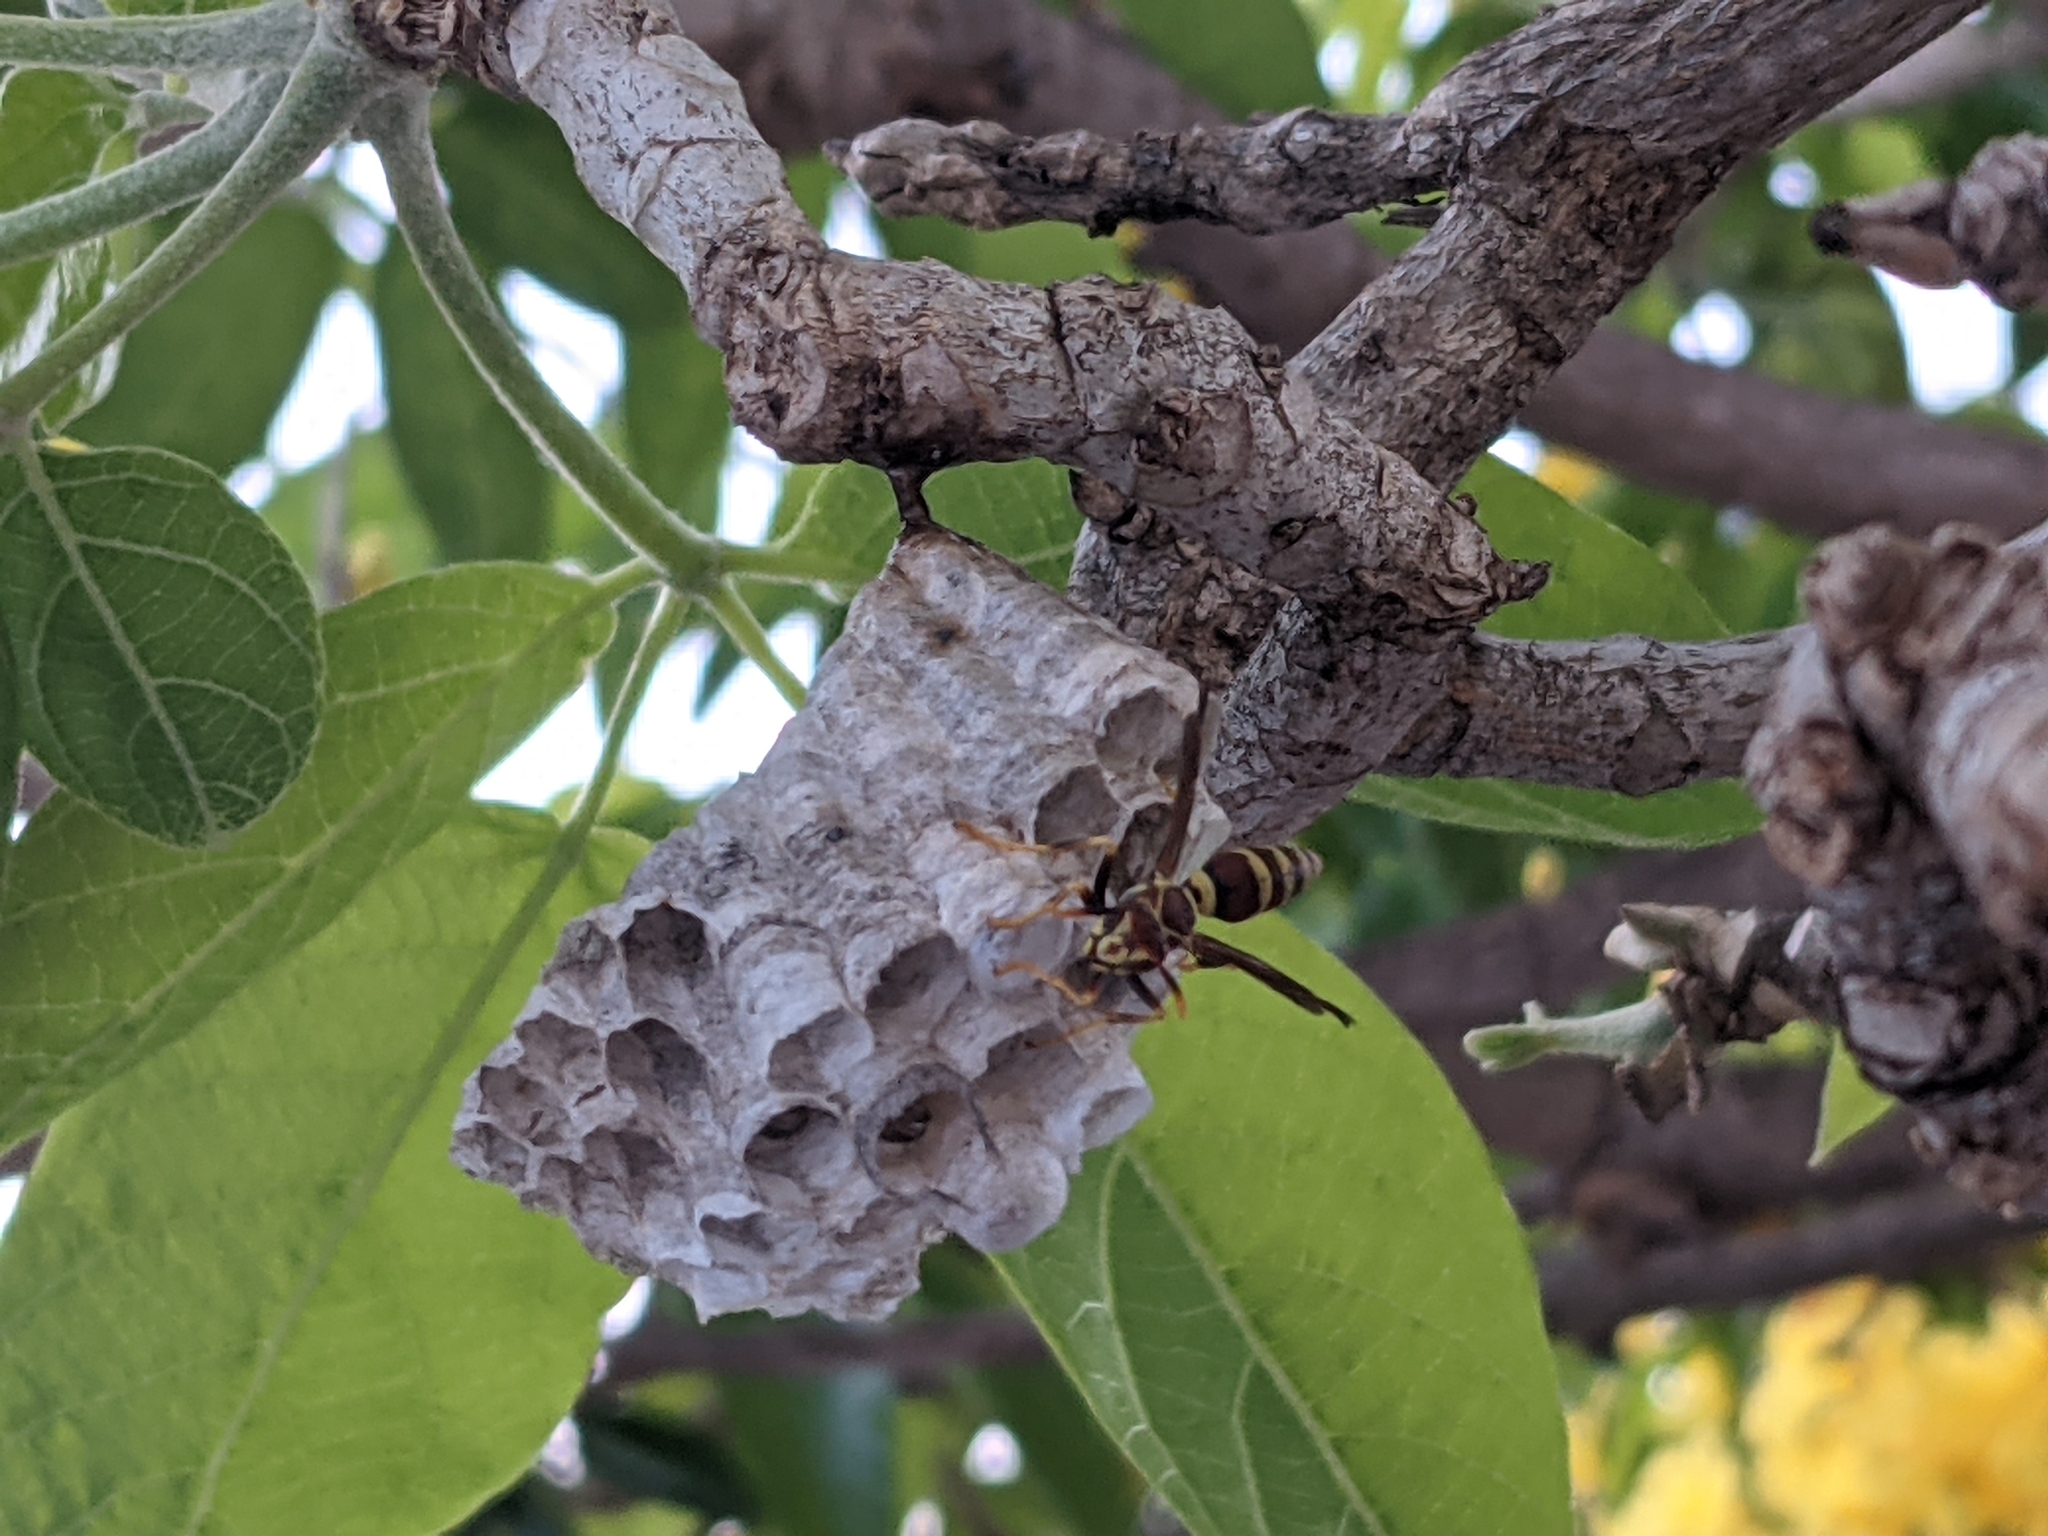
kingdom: Animalia
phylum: Arthropoda
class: Insecta
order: Hymenoptera
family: Eumenidae
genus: Polistes
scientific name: Polistes exclamans
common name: Paper wasp
